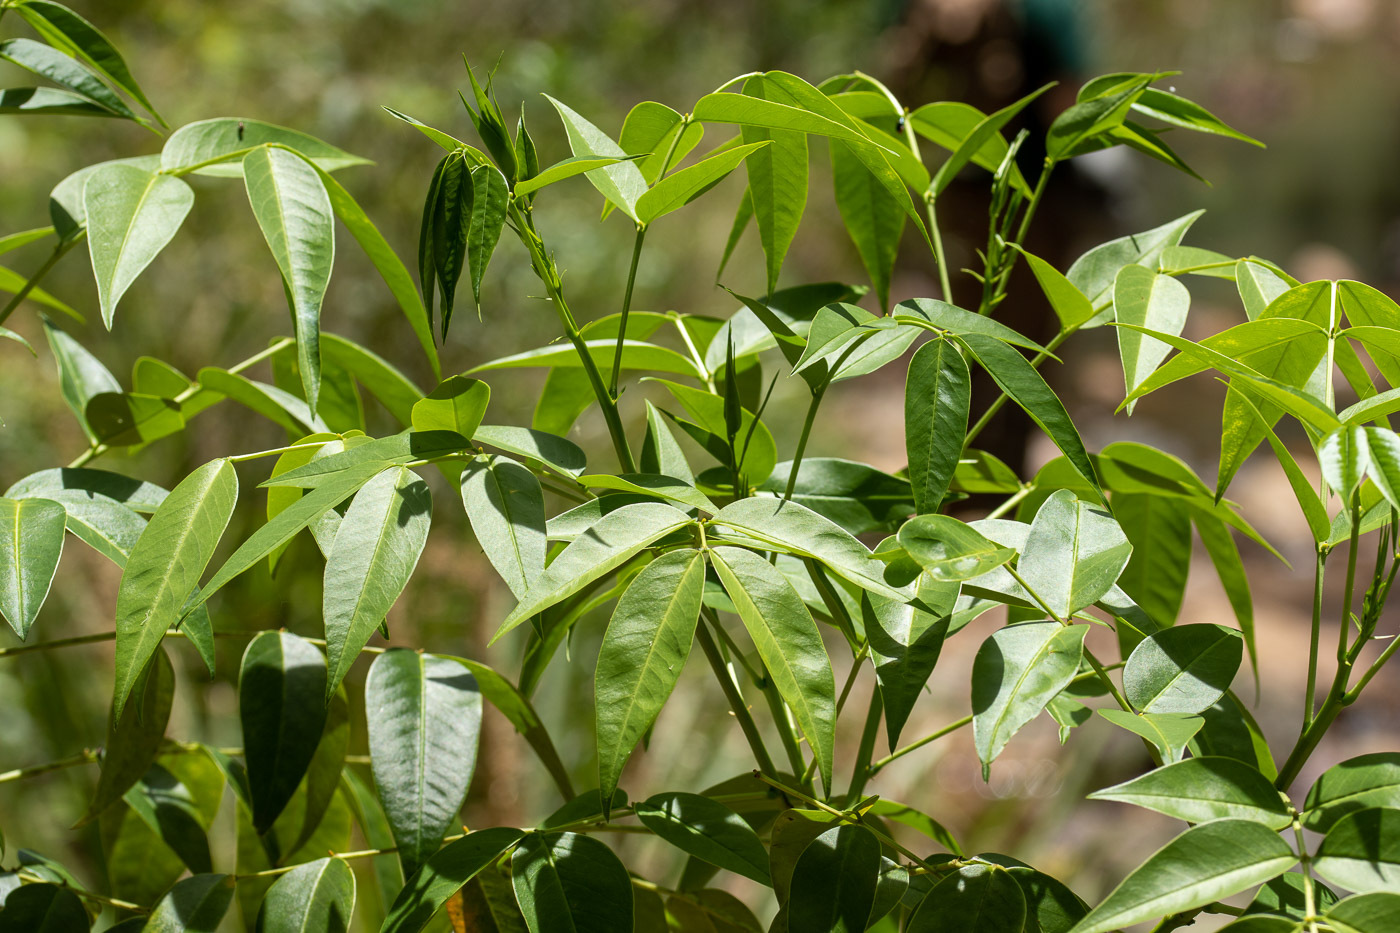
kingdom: Plantae
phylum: Tracheophyta
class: Magnoliopsida
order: Fabales
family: Fabaceae
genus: Senna
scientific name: Senna septemtrionalis
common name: Arsenic bush
